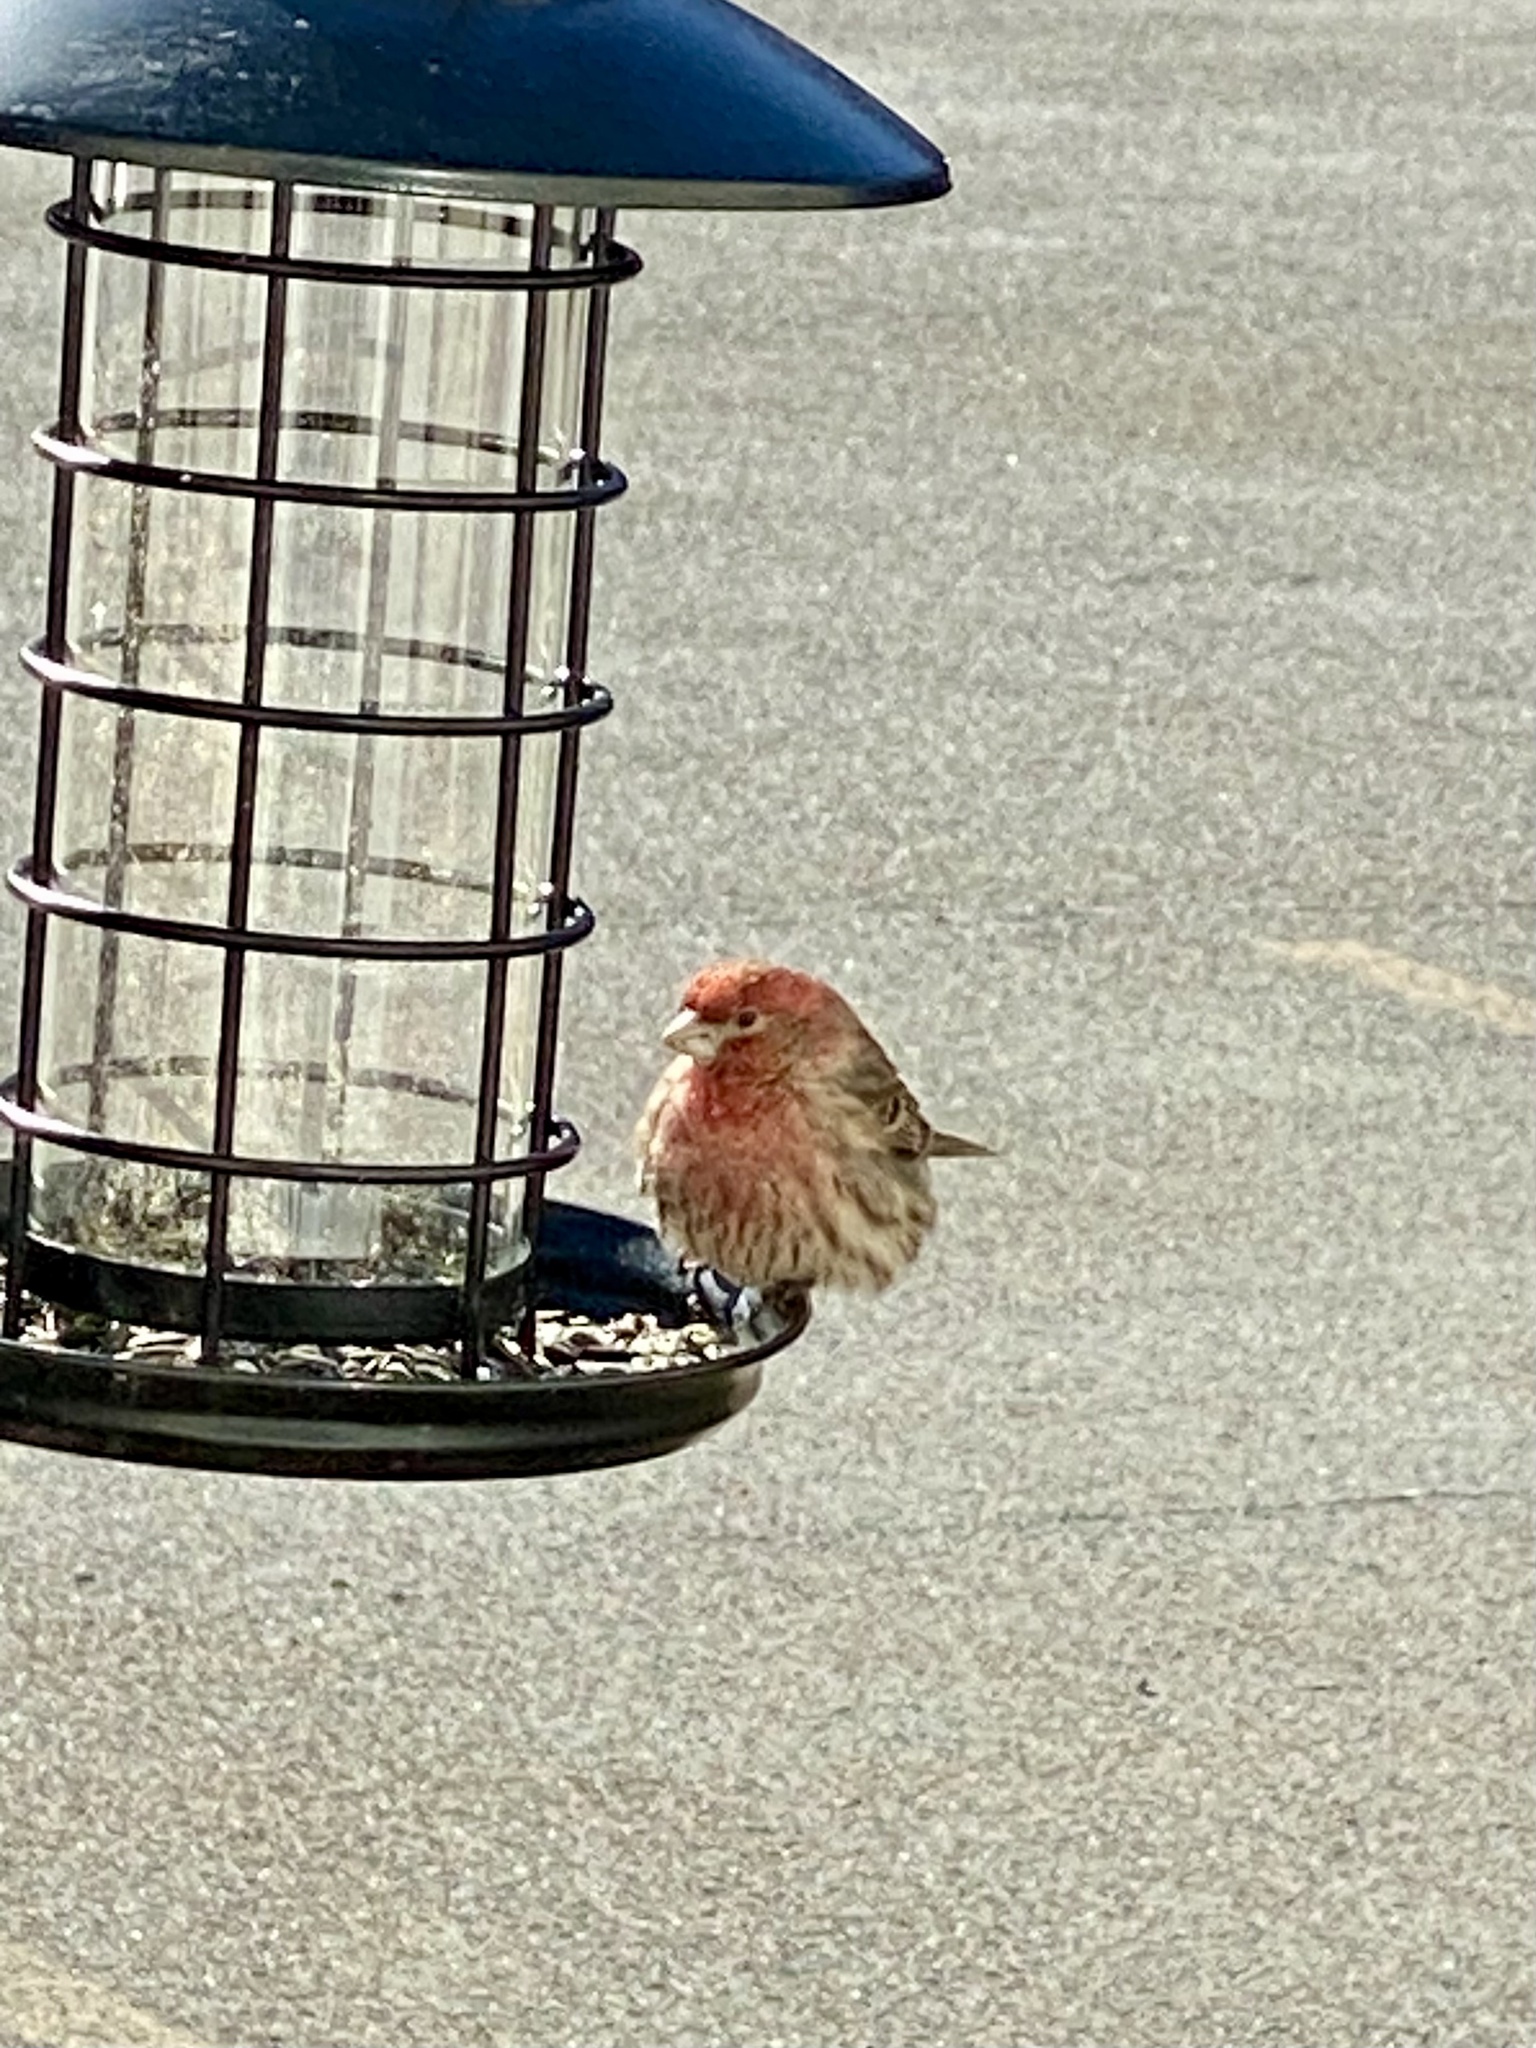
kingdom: Animalia
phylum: Chordata
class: Aves
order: Passeriformes
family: Fringillidae
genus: Haemorhous
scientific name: Haemorhous mexicanus
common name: House finch
